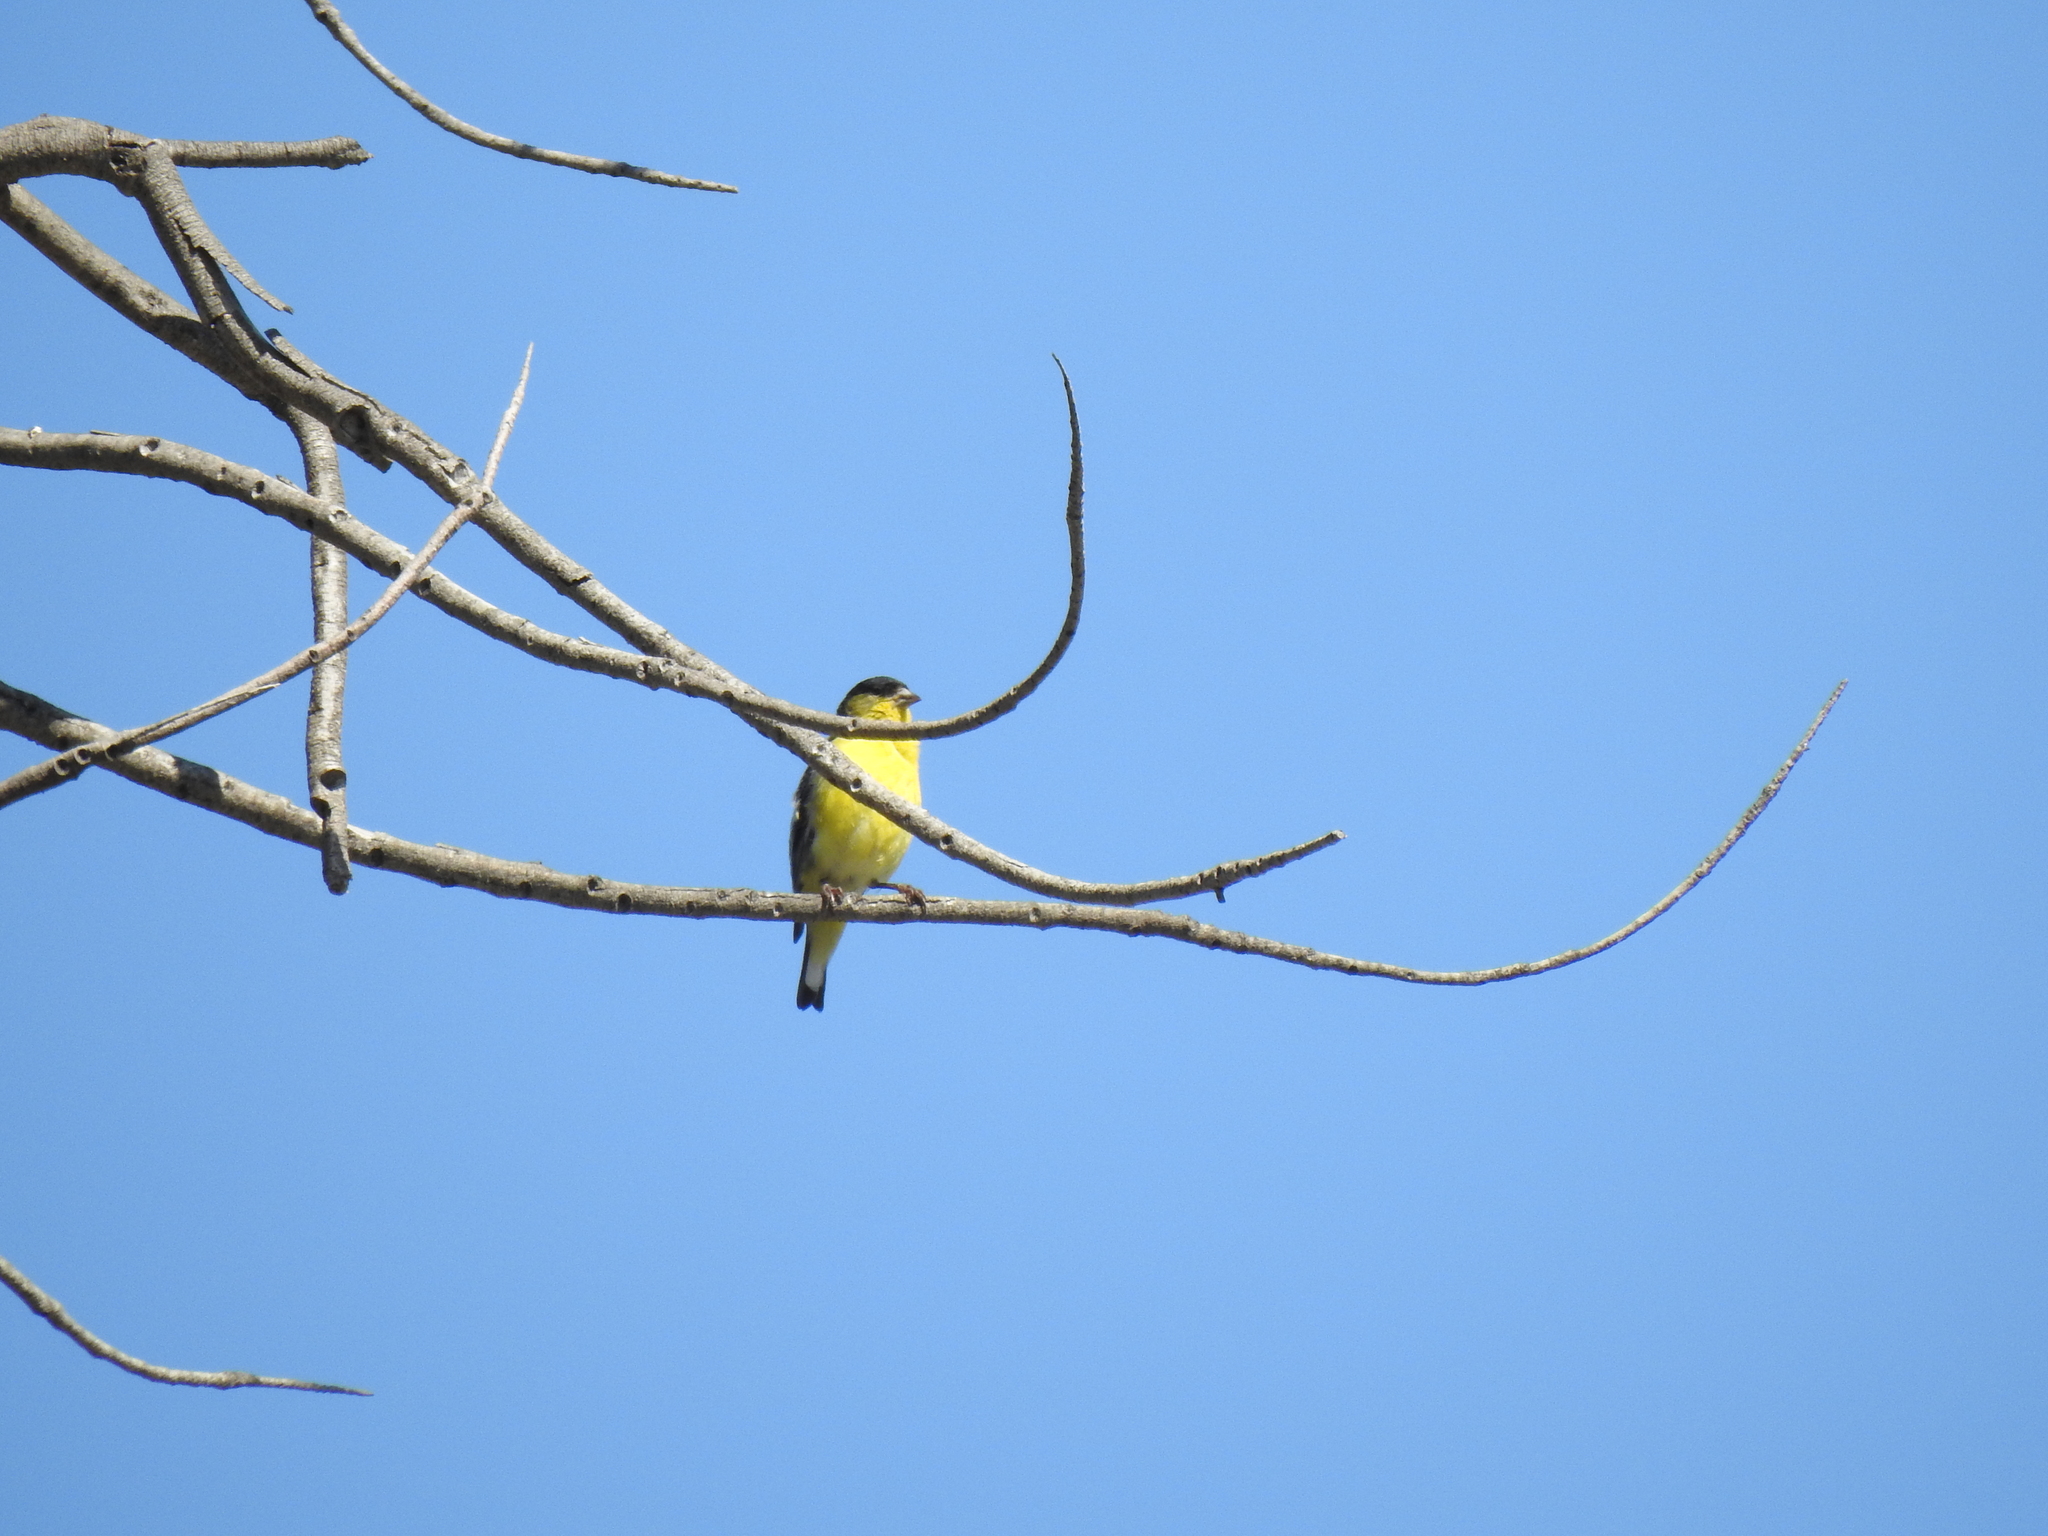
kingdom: Animalia
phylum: Chordata
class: Aves
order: Passeriformes
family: Fringillidae
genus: Spinus
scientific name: Spinus psaltria
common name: Lesser goldfinch
